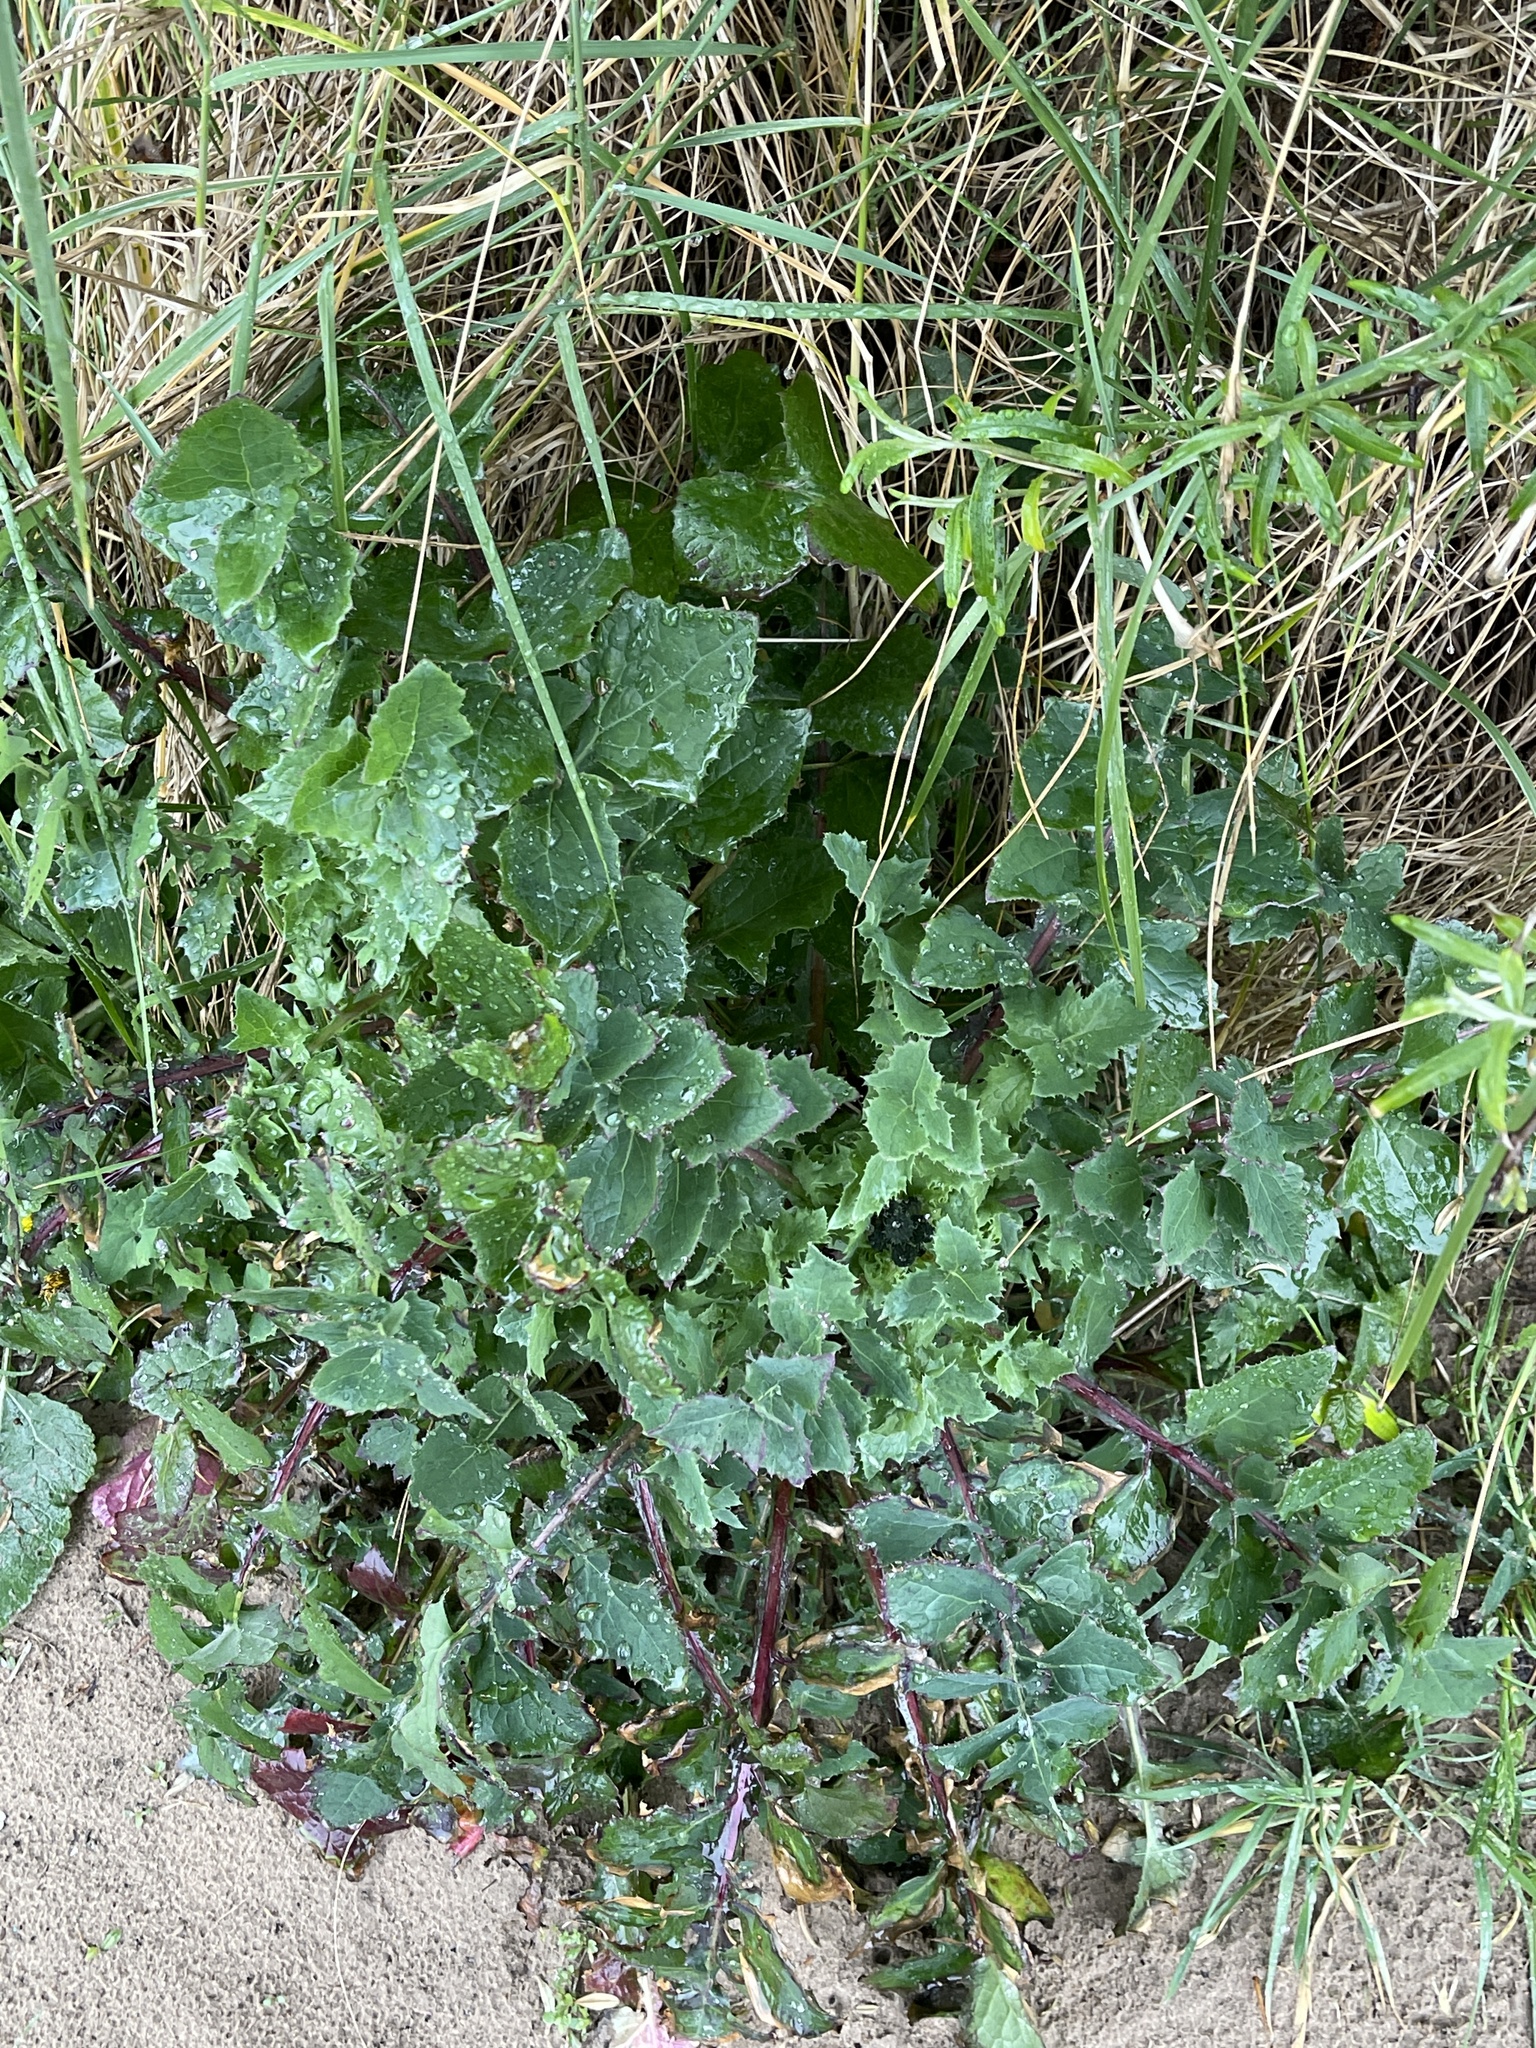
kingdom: Plantae
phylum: Tracheophyta
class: Magnoliopsida
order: Asterales
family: Asteraceae
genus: Sonchus
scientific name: Sonchus oleraceus
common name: Common sowthistle
